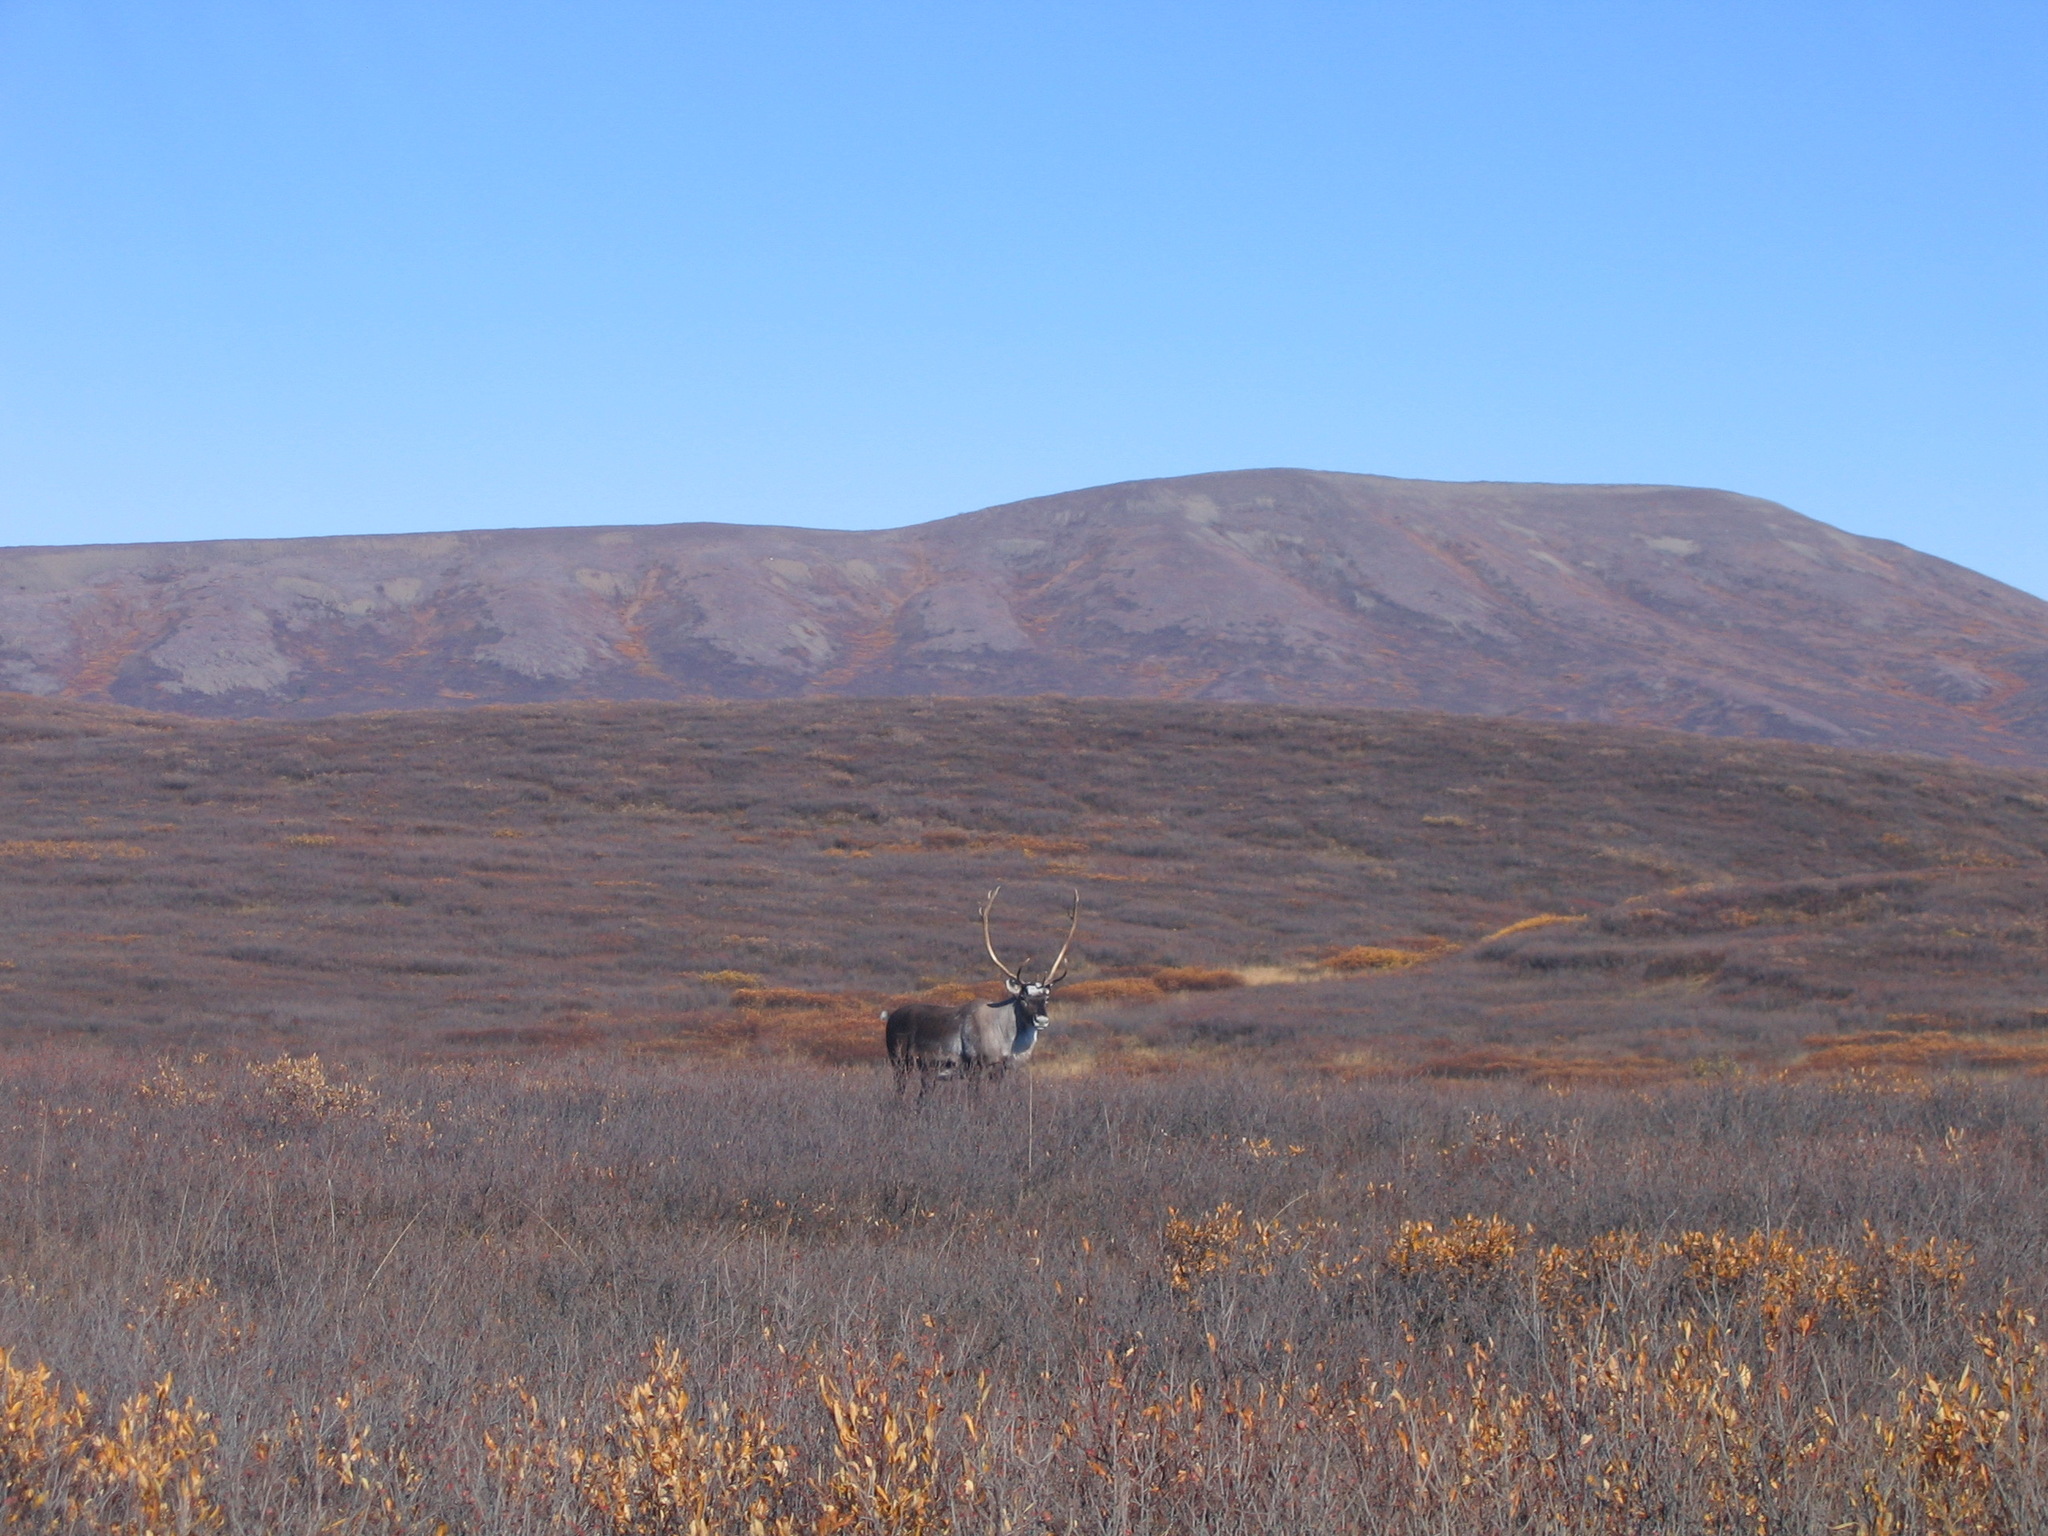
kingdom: Animalia
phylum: Chordata
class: Mammalia
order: Artiodactyla
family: Cervidae
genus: Rangifer
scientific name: Rangifer tarandus
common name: Reindeer
